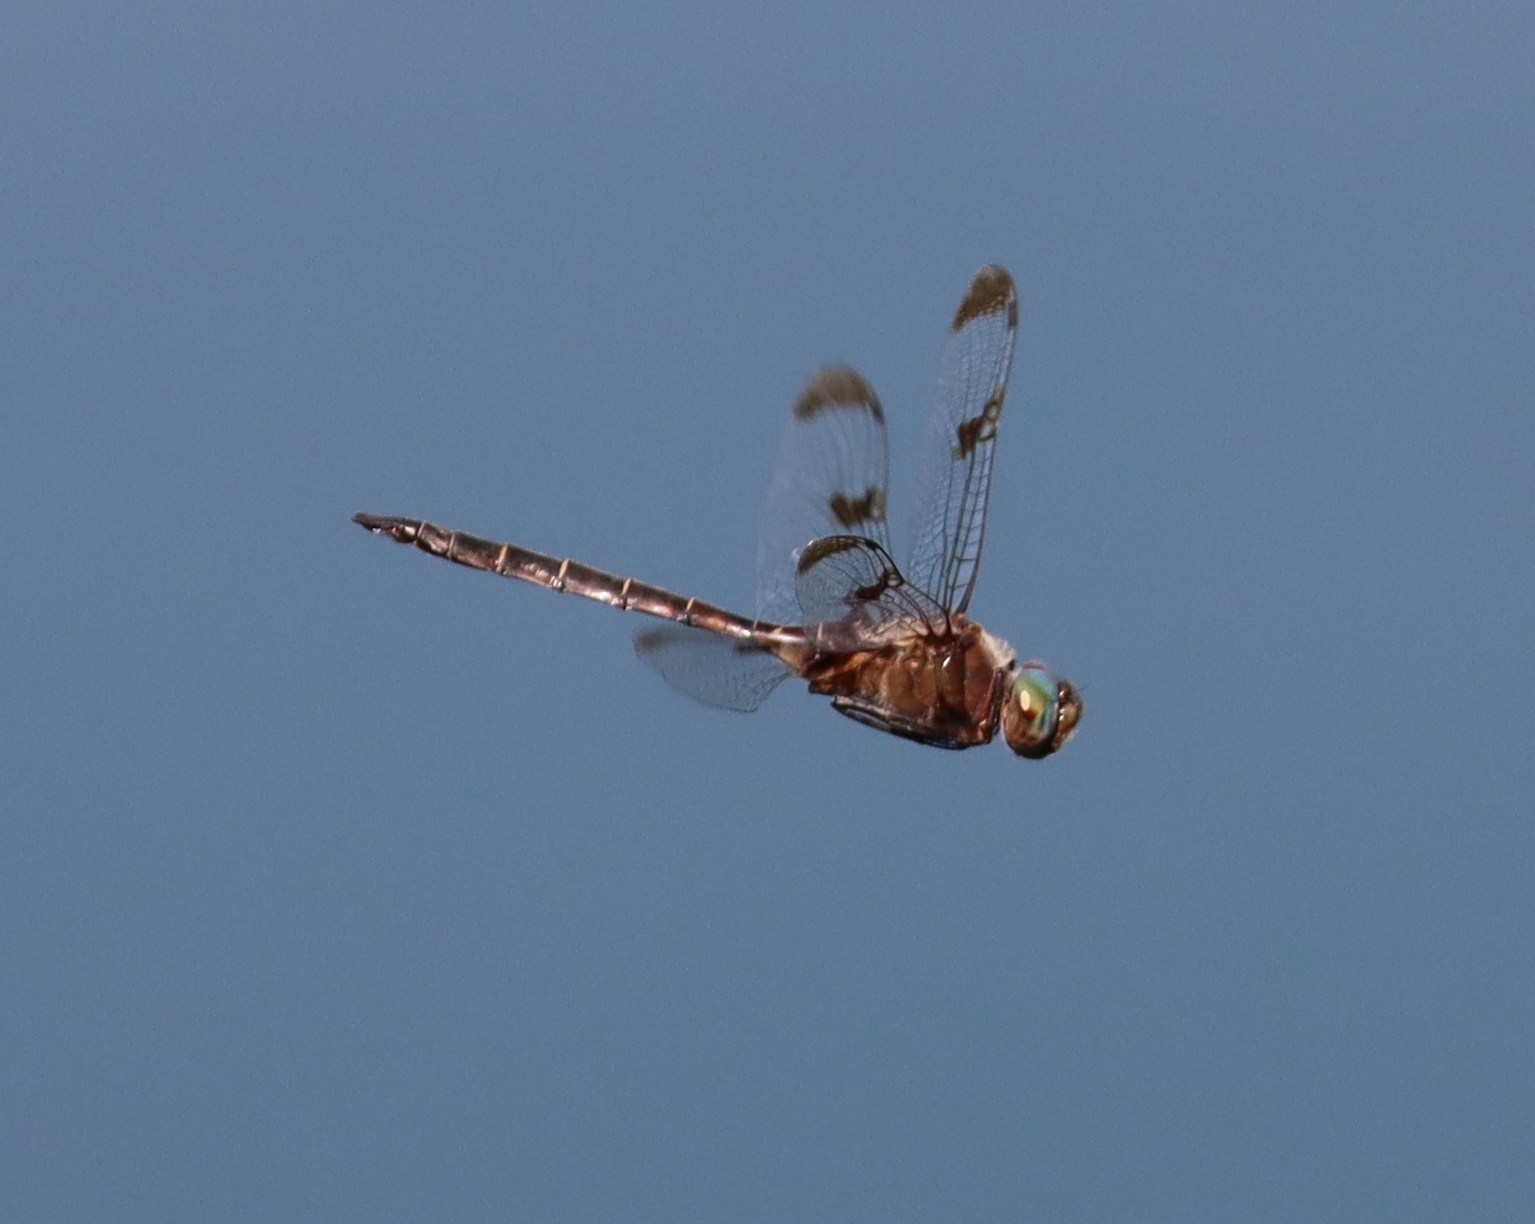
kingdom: Animalia
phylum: Arthropoda
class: Insecta
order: Odonata
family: Corduliidae
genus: Epitheca
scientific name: Epitheca princeps
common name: Prince baskettail
